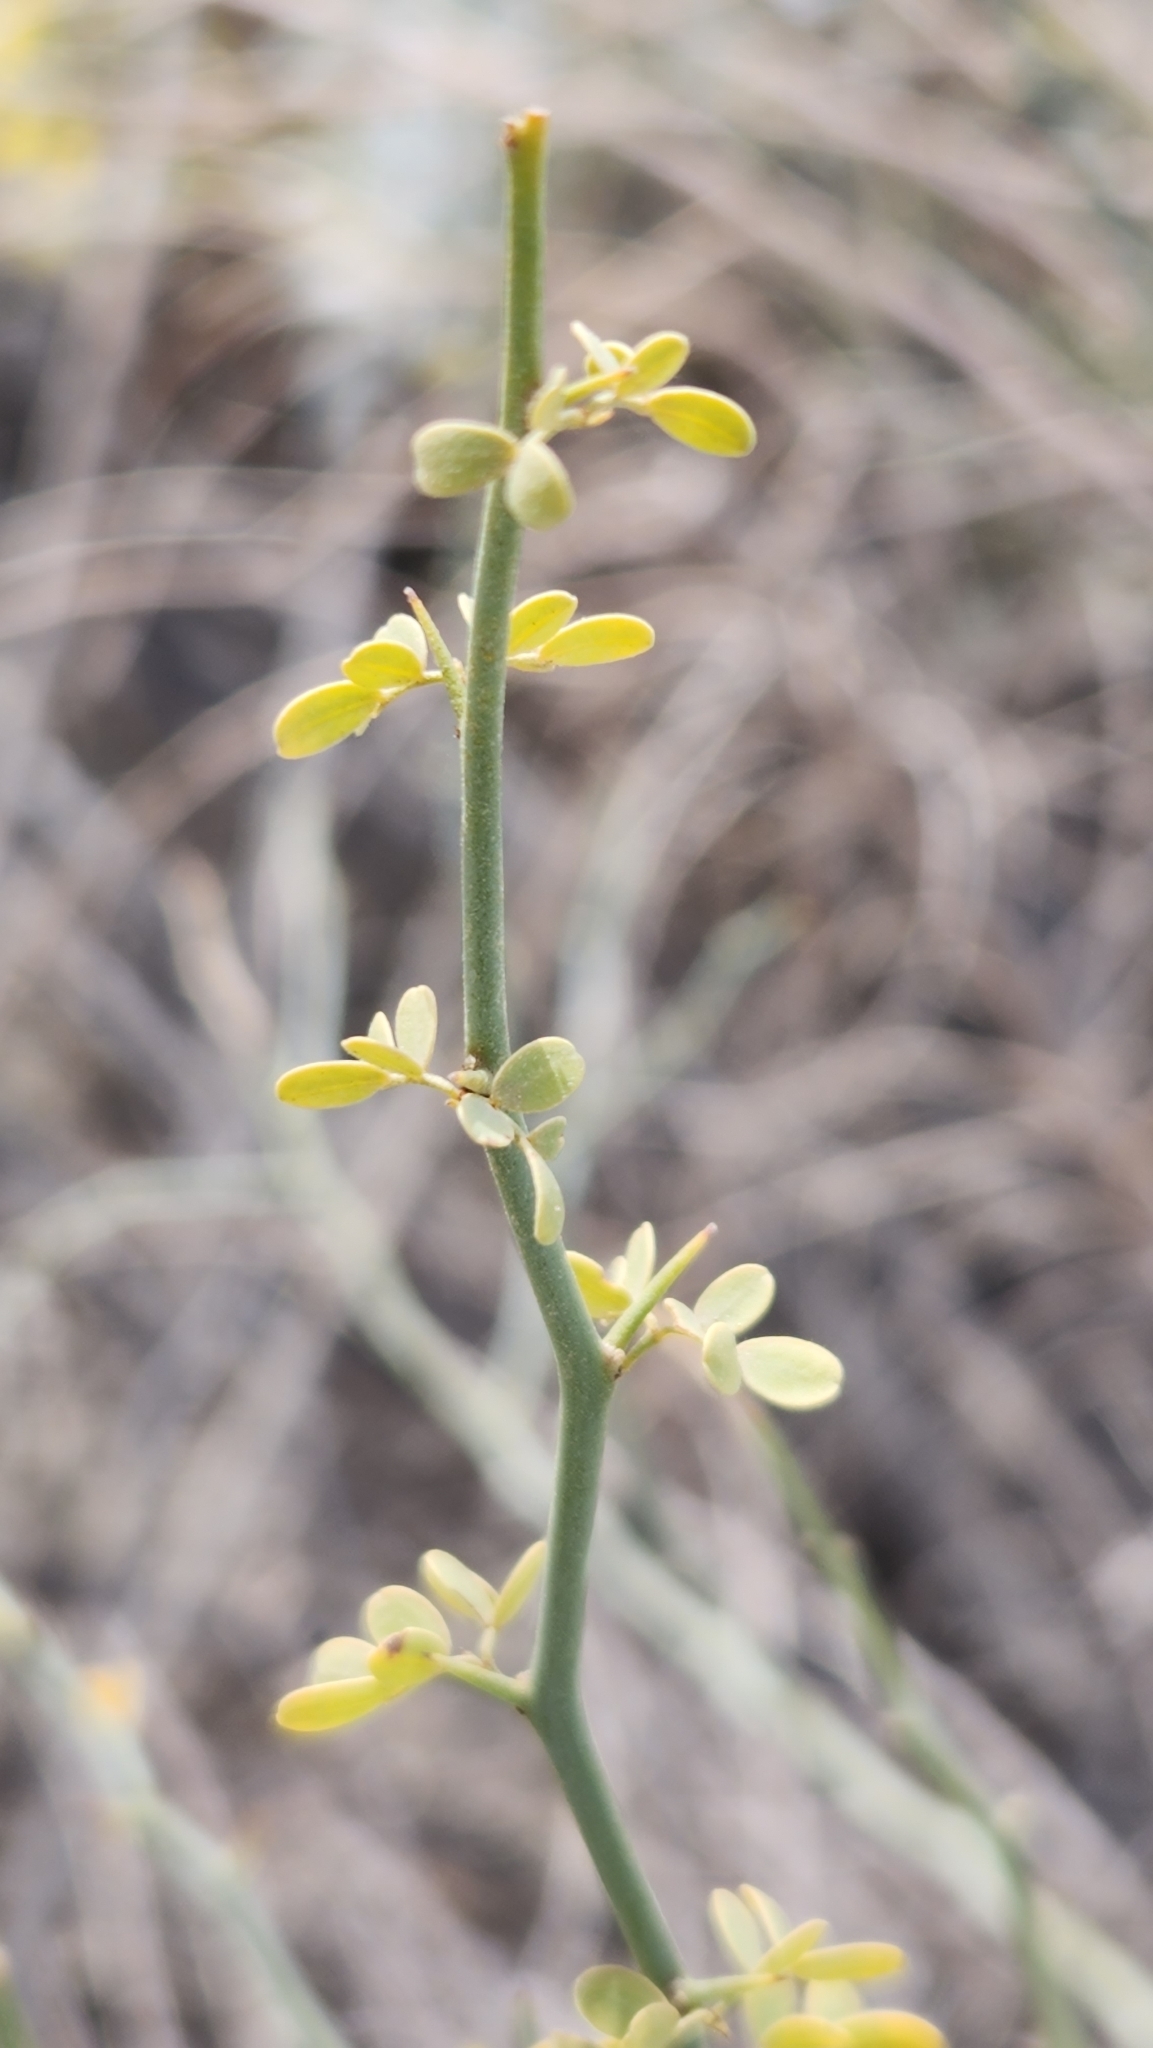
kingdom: Plantae
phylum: Tracheophyta
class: Magnoliopsida
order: Fabales
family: Fabaceae
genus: Parkinsonia
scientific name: Parkinsonia florida
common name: Blue paloverde
